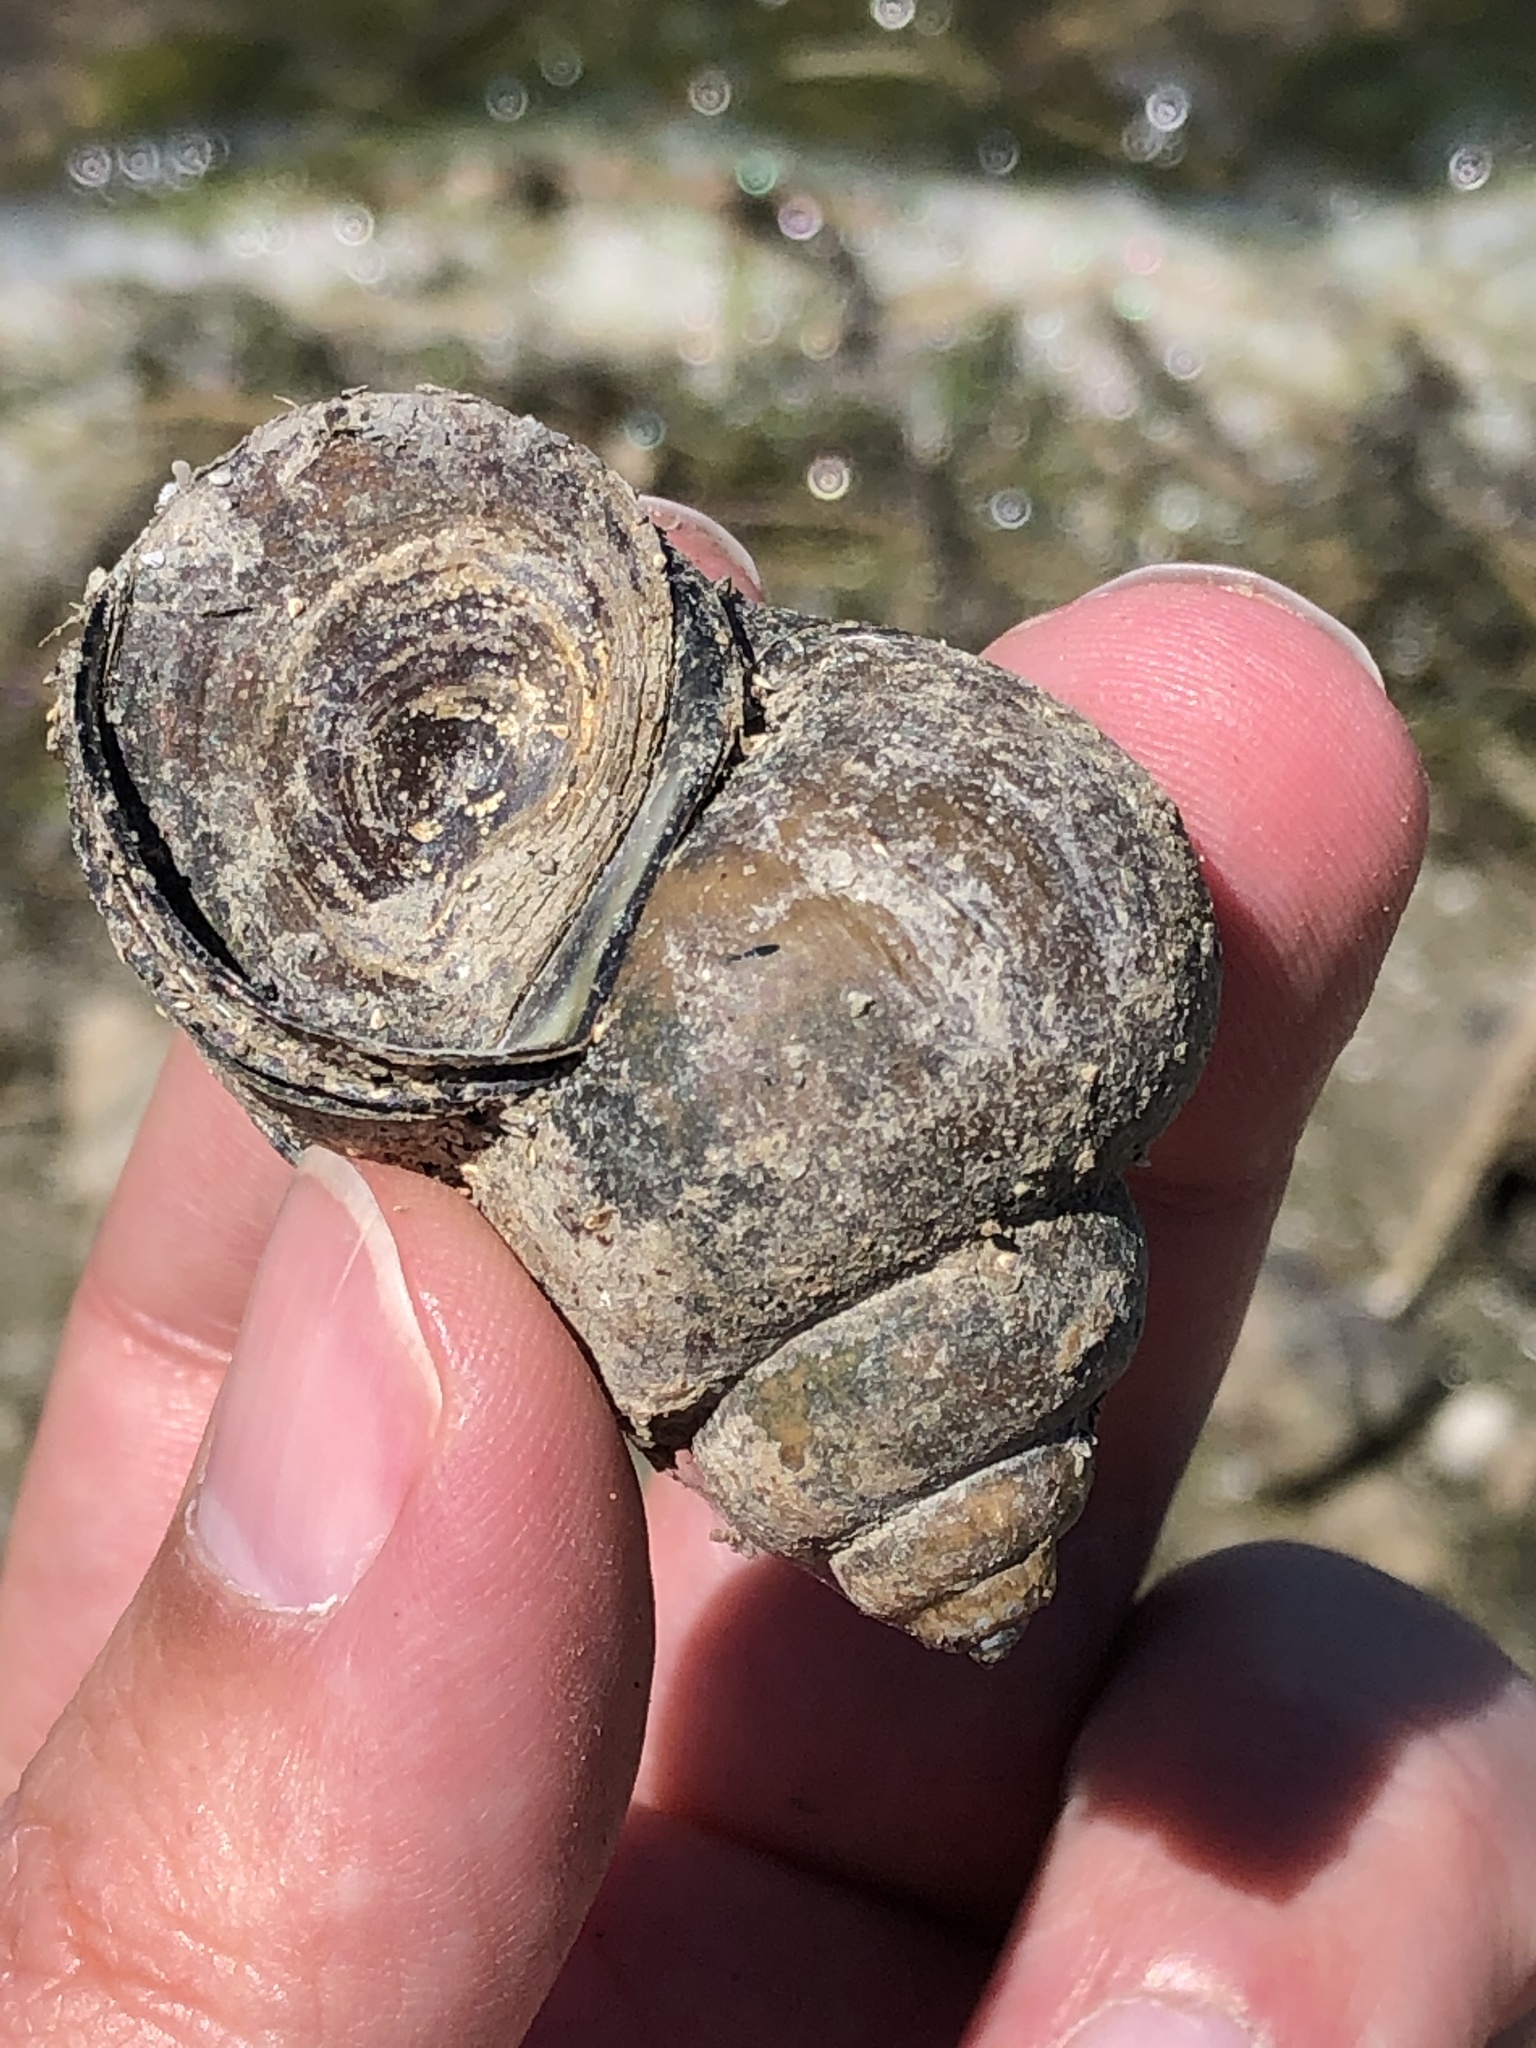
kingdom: Animalia
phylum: Mollusca
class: Gastropoda
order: Architaenioglossa
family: Viviparidae
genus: Cipangopaludina
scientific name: Cipangopaludina chinensis
